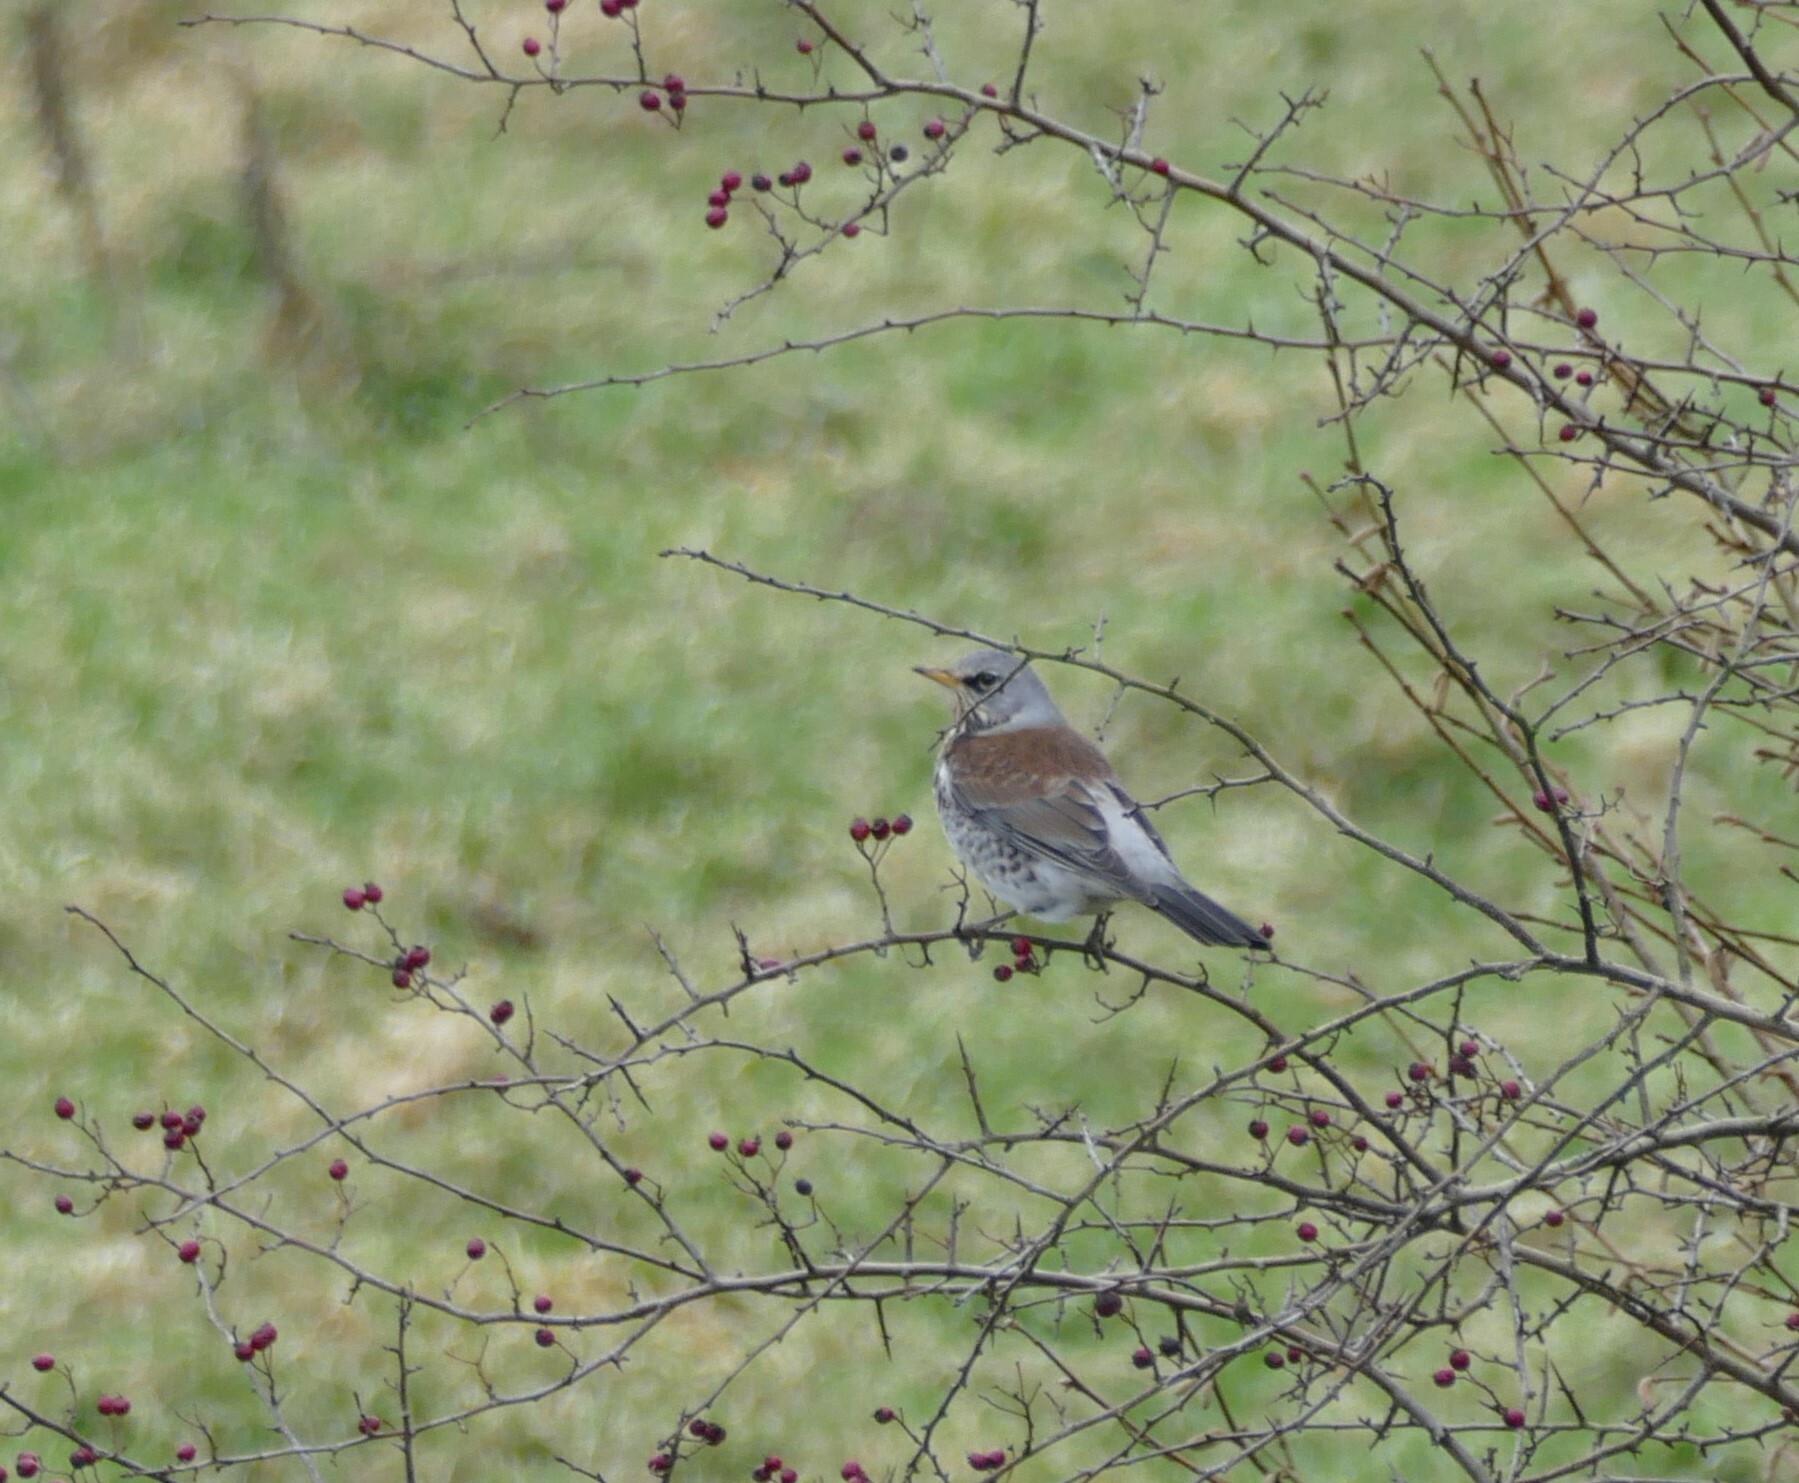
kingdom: Animalia
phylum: Chordata
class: Aves
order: Passeriformes
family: Turdidae
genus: Turdus
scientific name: Turdus pilaris
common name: Fieldfare
